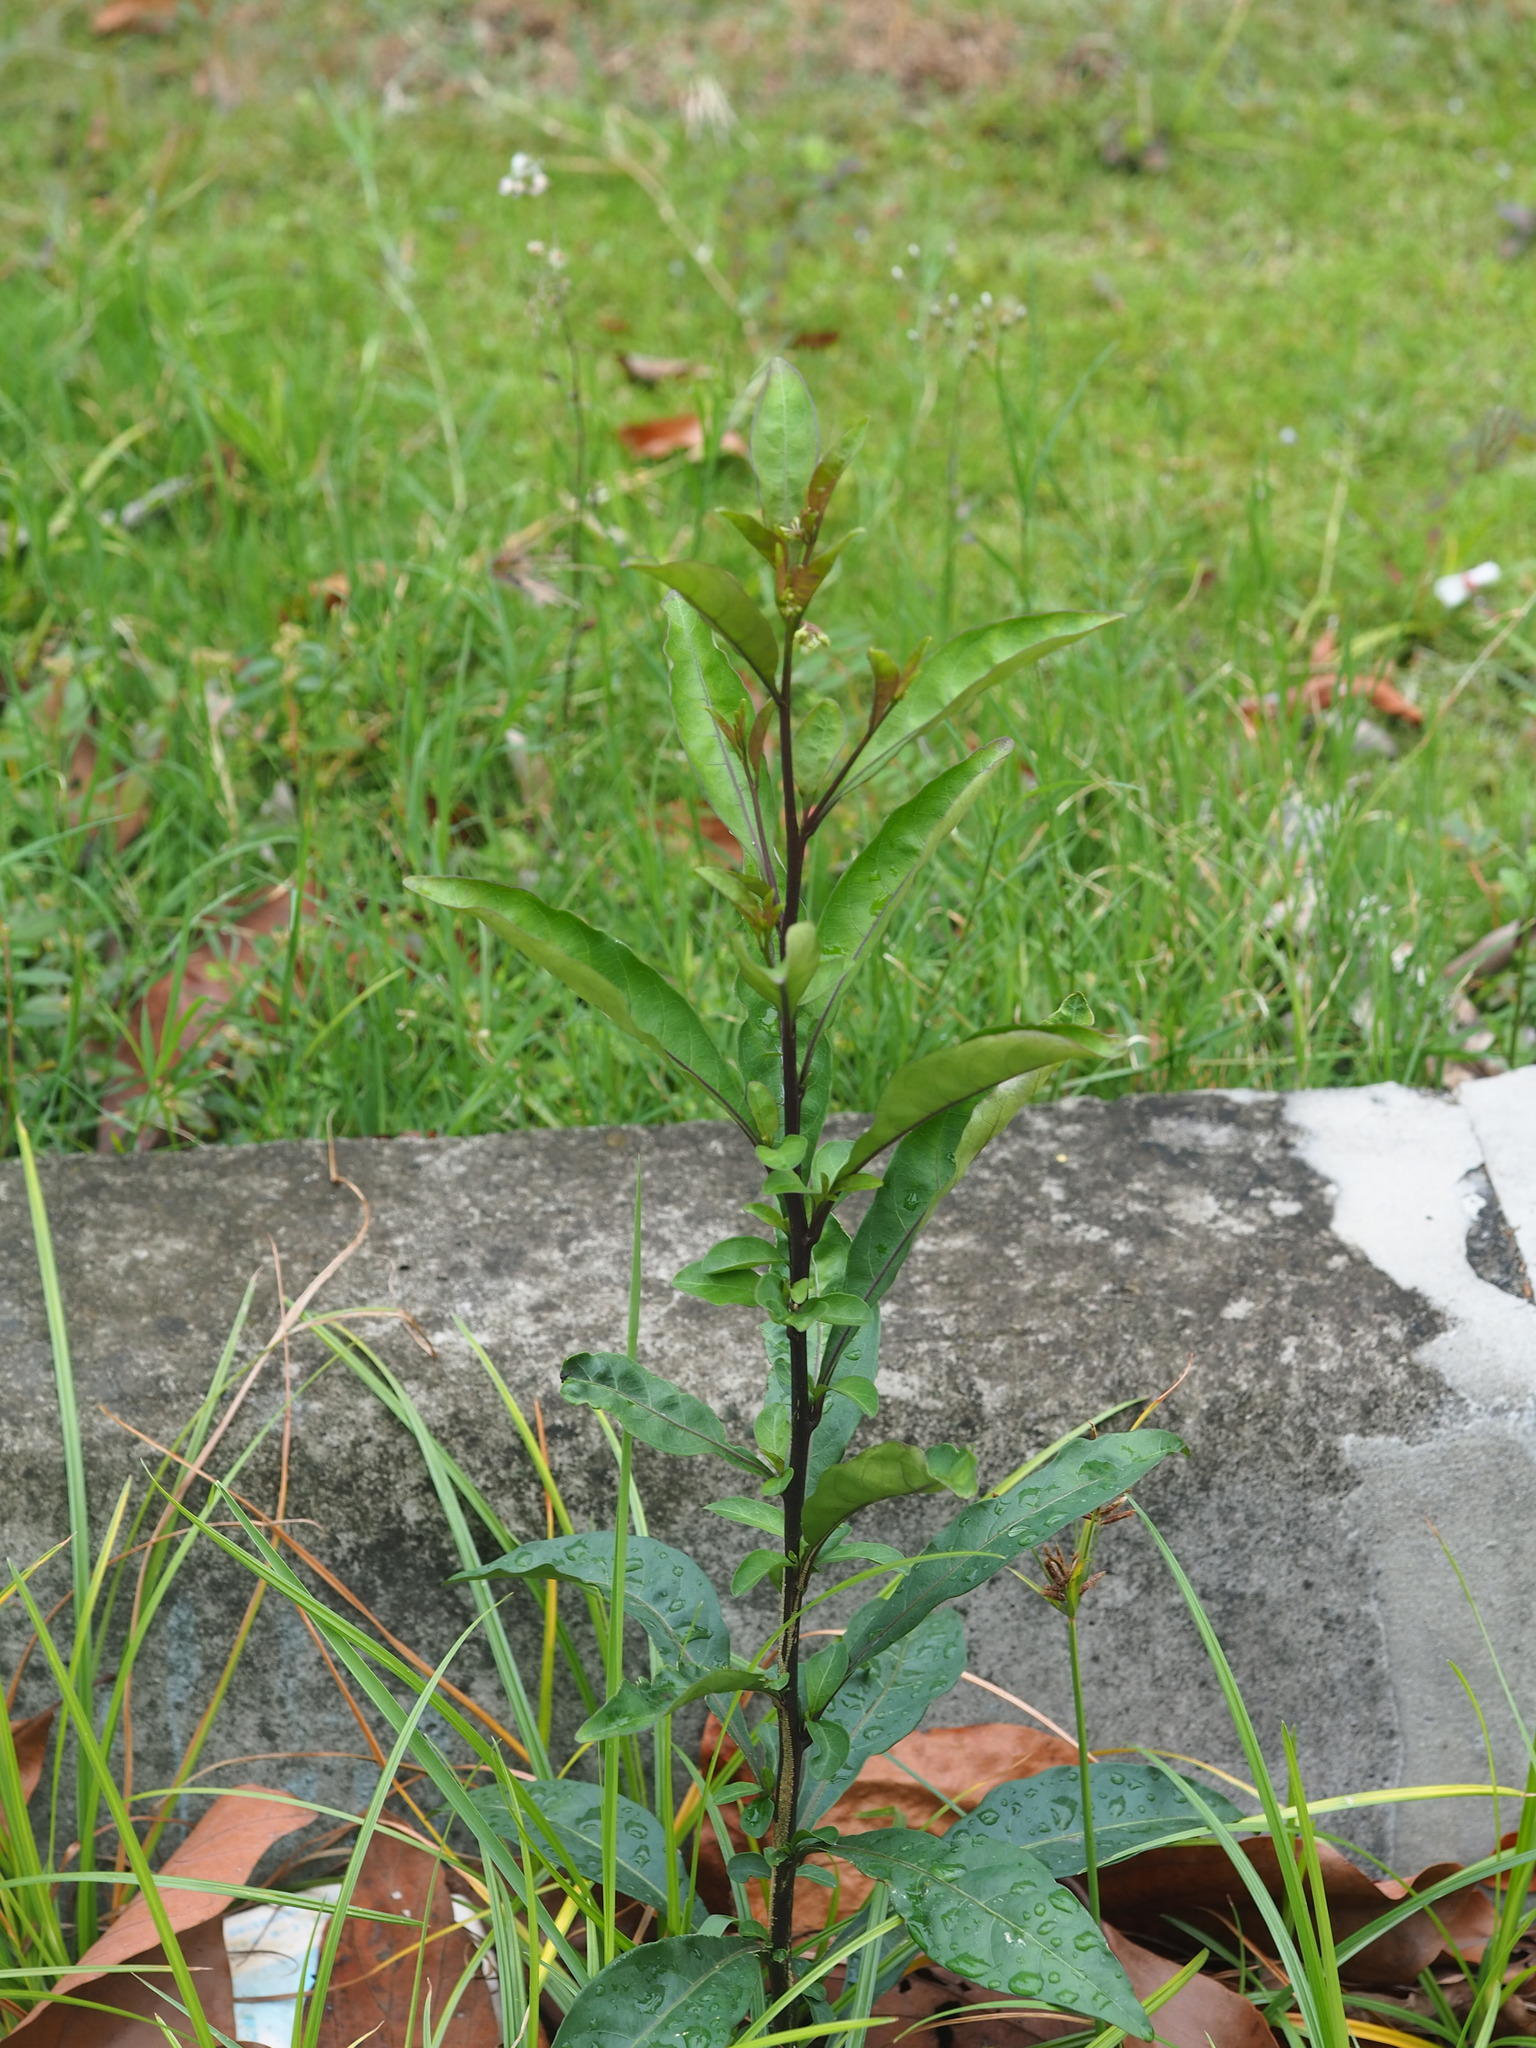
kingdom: Plantae
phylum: Tracheophyta
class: Magnoliopsida
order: Solanales
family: Solanaceae
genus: Solanum
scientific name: Solanum diphyllum
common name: Twoleaf nightshade
